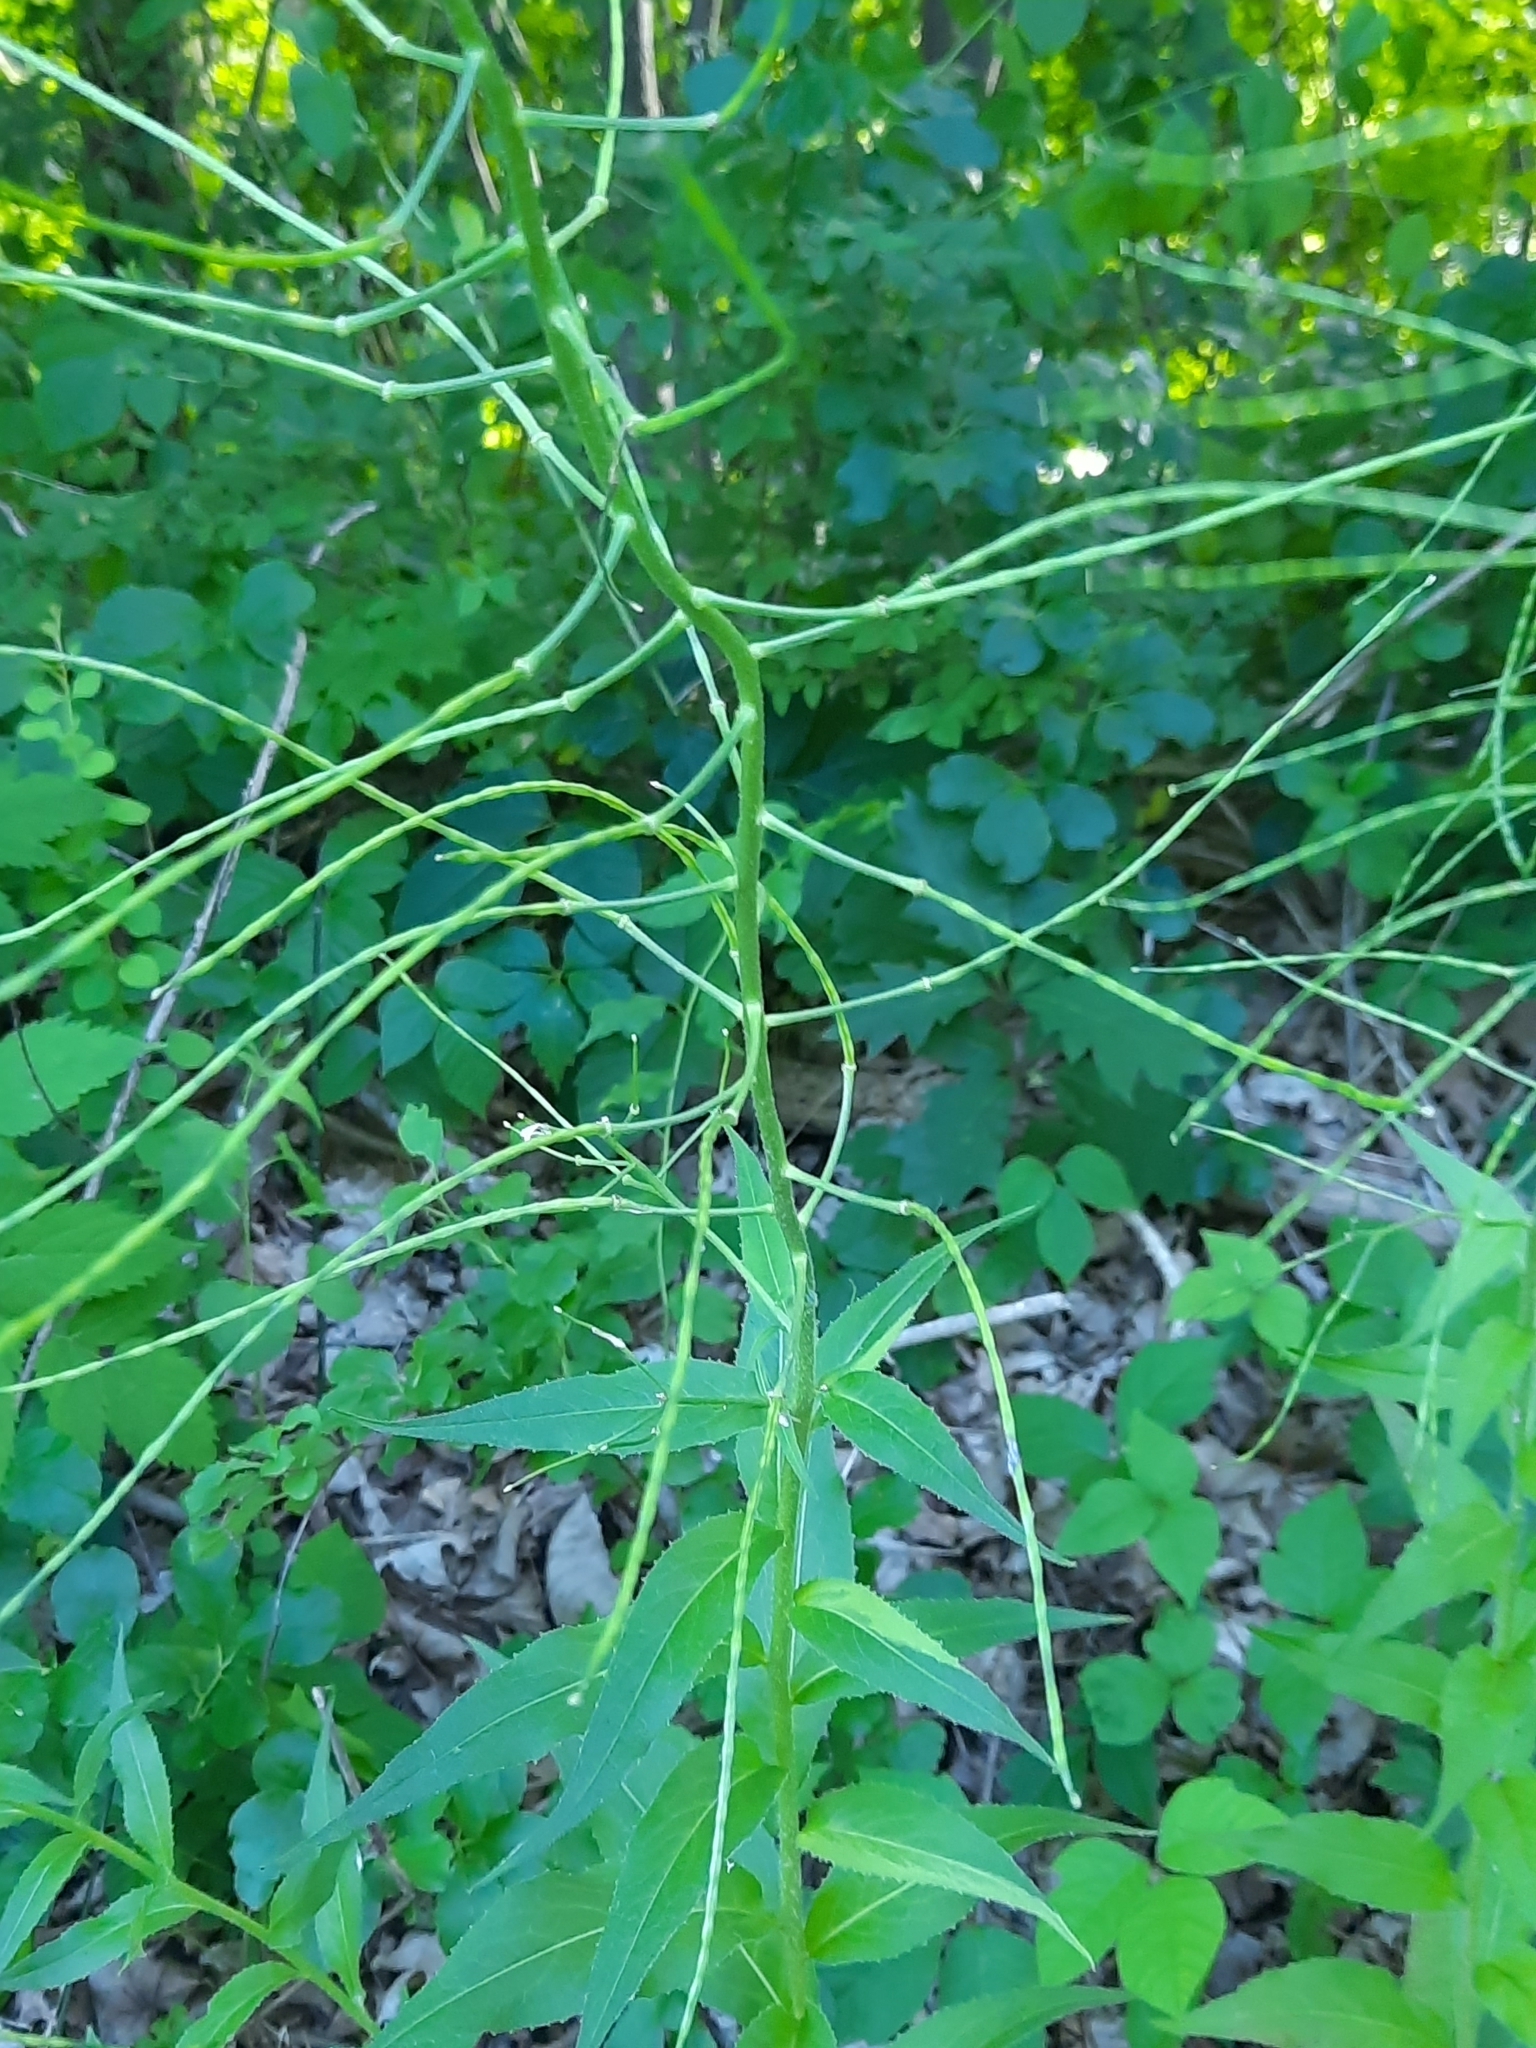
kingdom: Plantae
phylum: Tracheophyta
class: Magnoliopsida
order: Brassicales
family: Brassicaceae
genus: Hesperis
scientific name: Hesperis matronalis
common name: Dame's-violet
